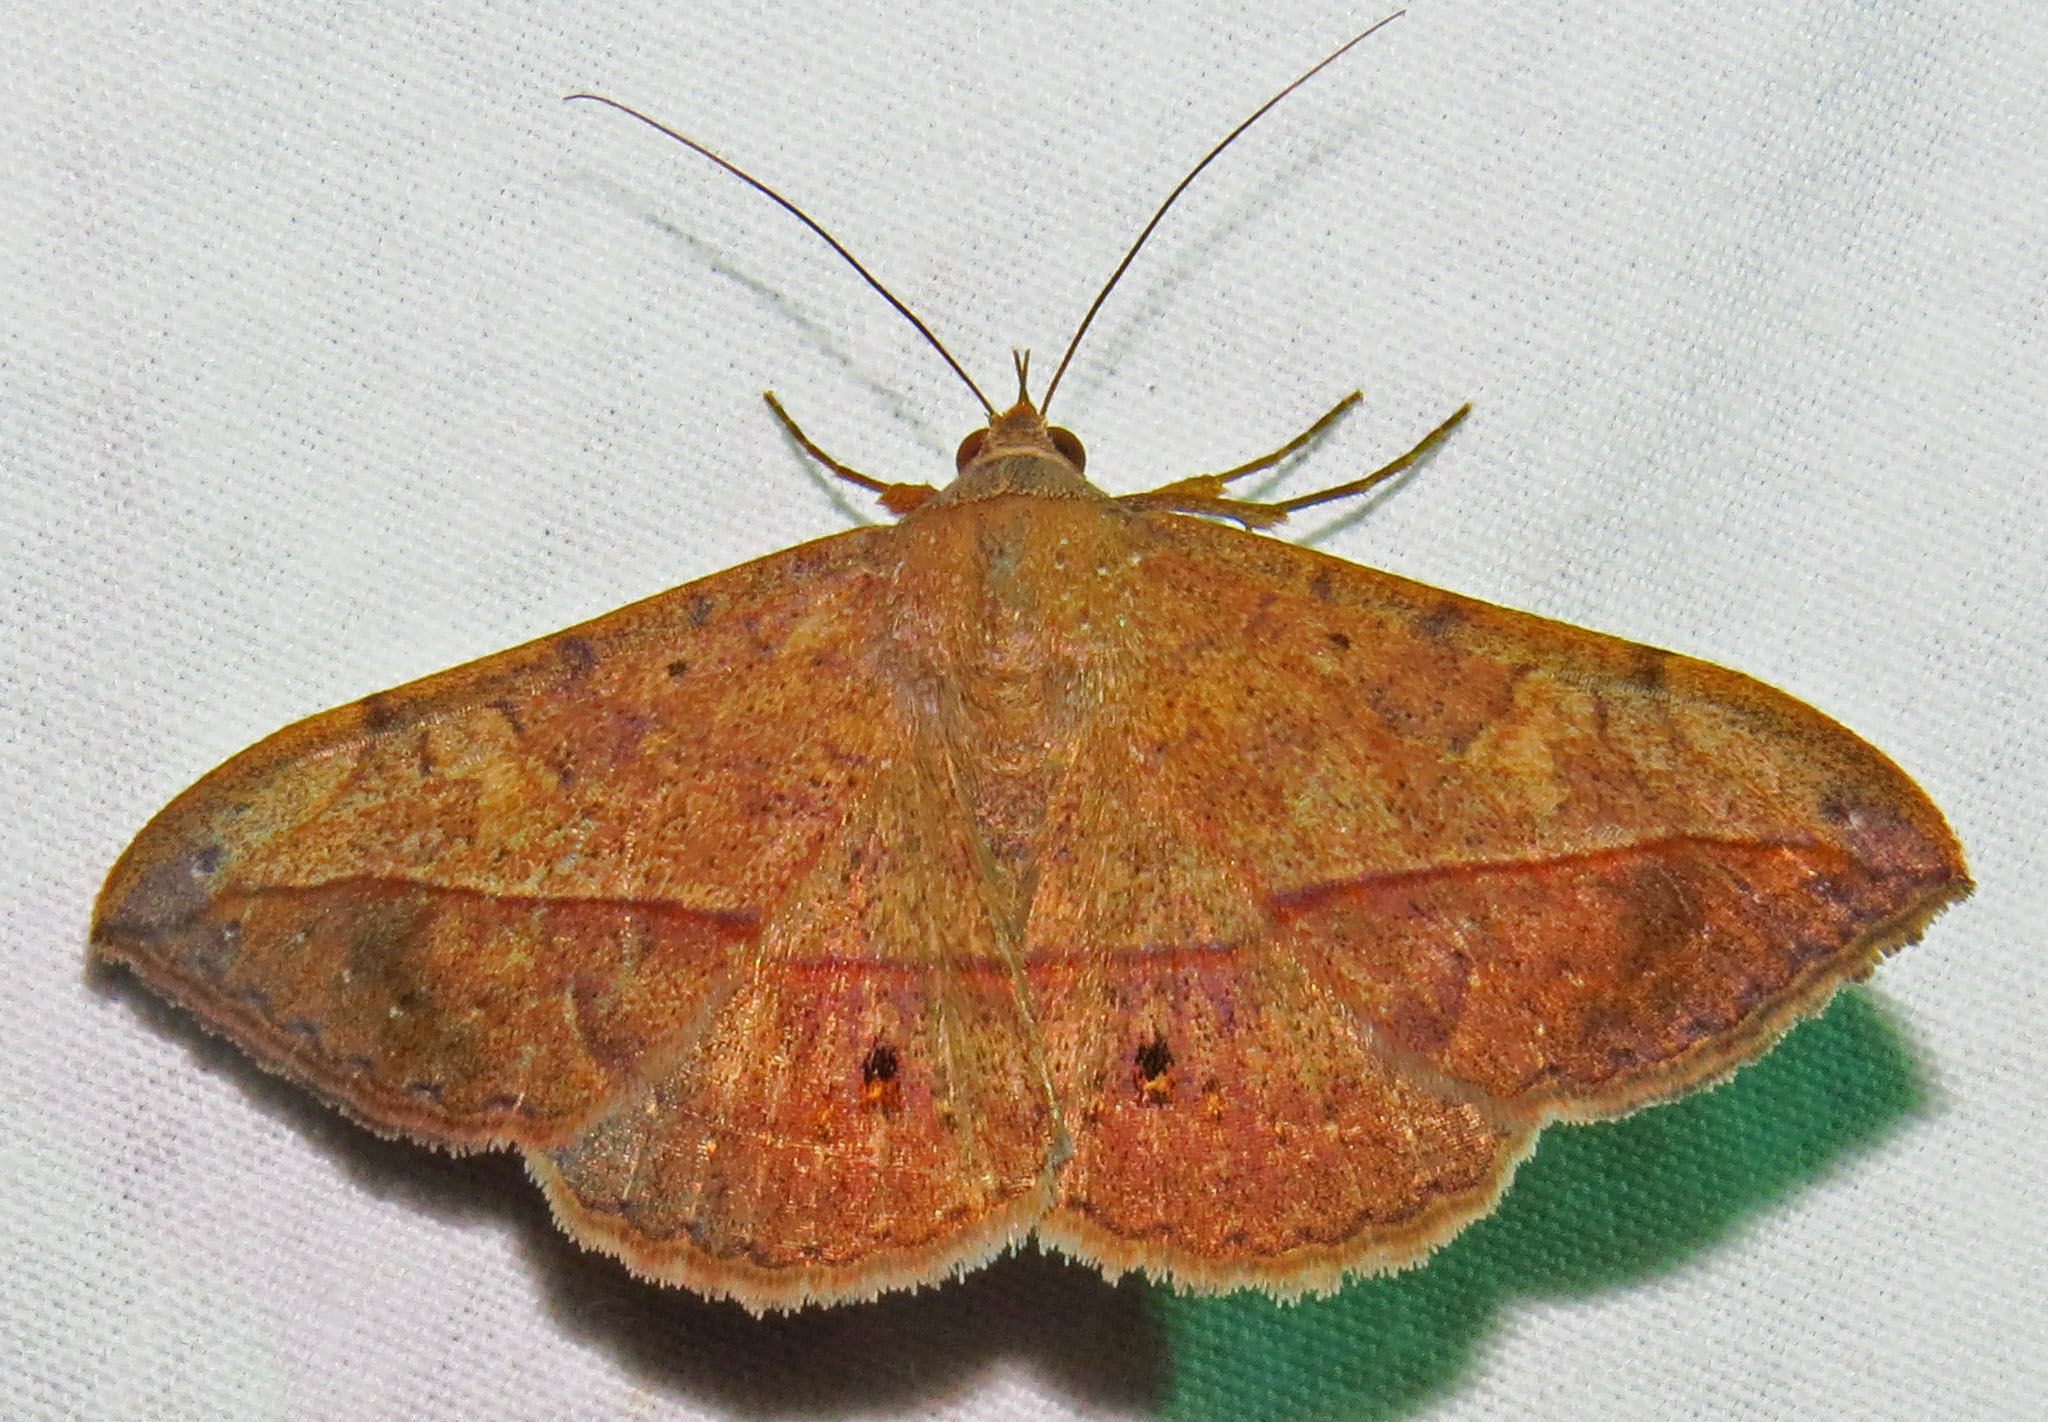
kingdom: Animalia
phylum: Arthropoda
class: Insecta
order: Lepidoptera
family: Erebidae
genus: Anticarsia
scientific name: Anticarsia gemmatalis
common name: Cutworm moth
